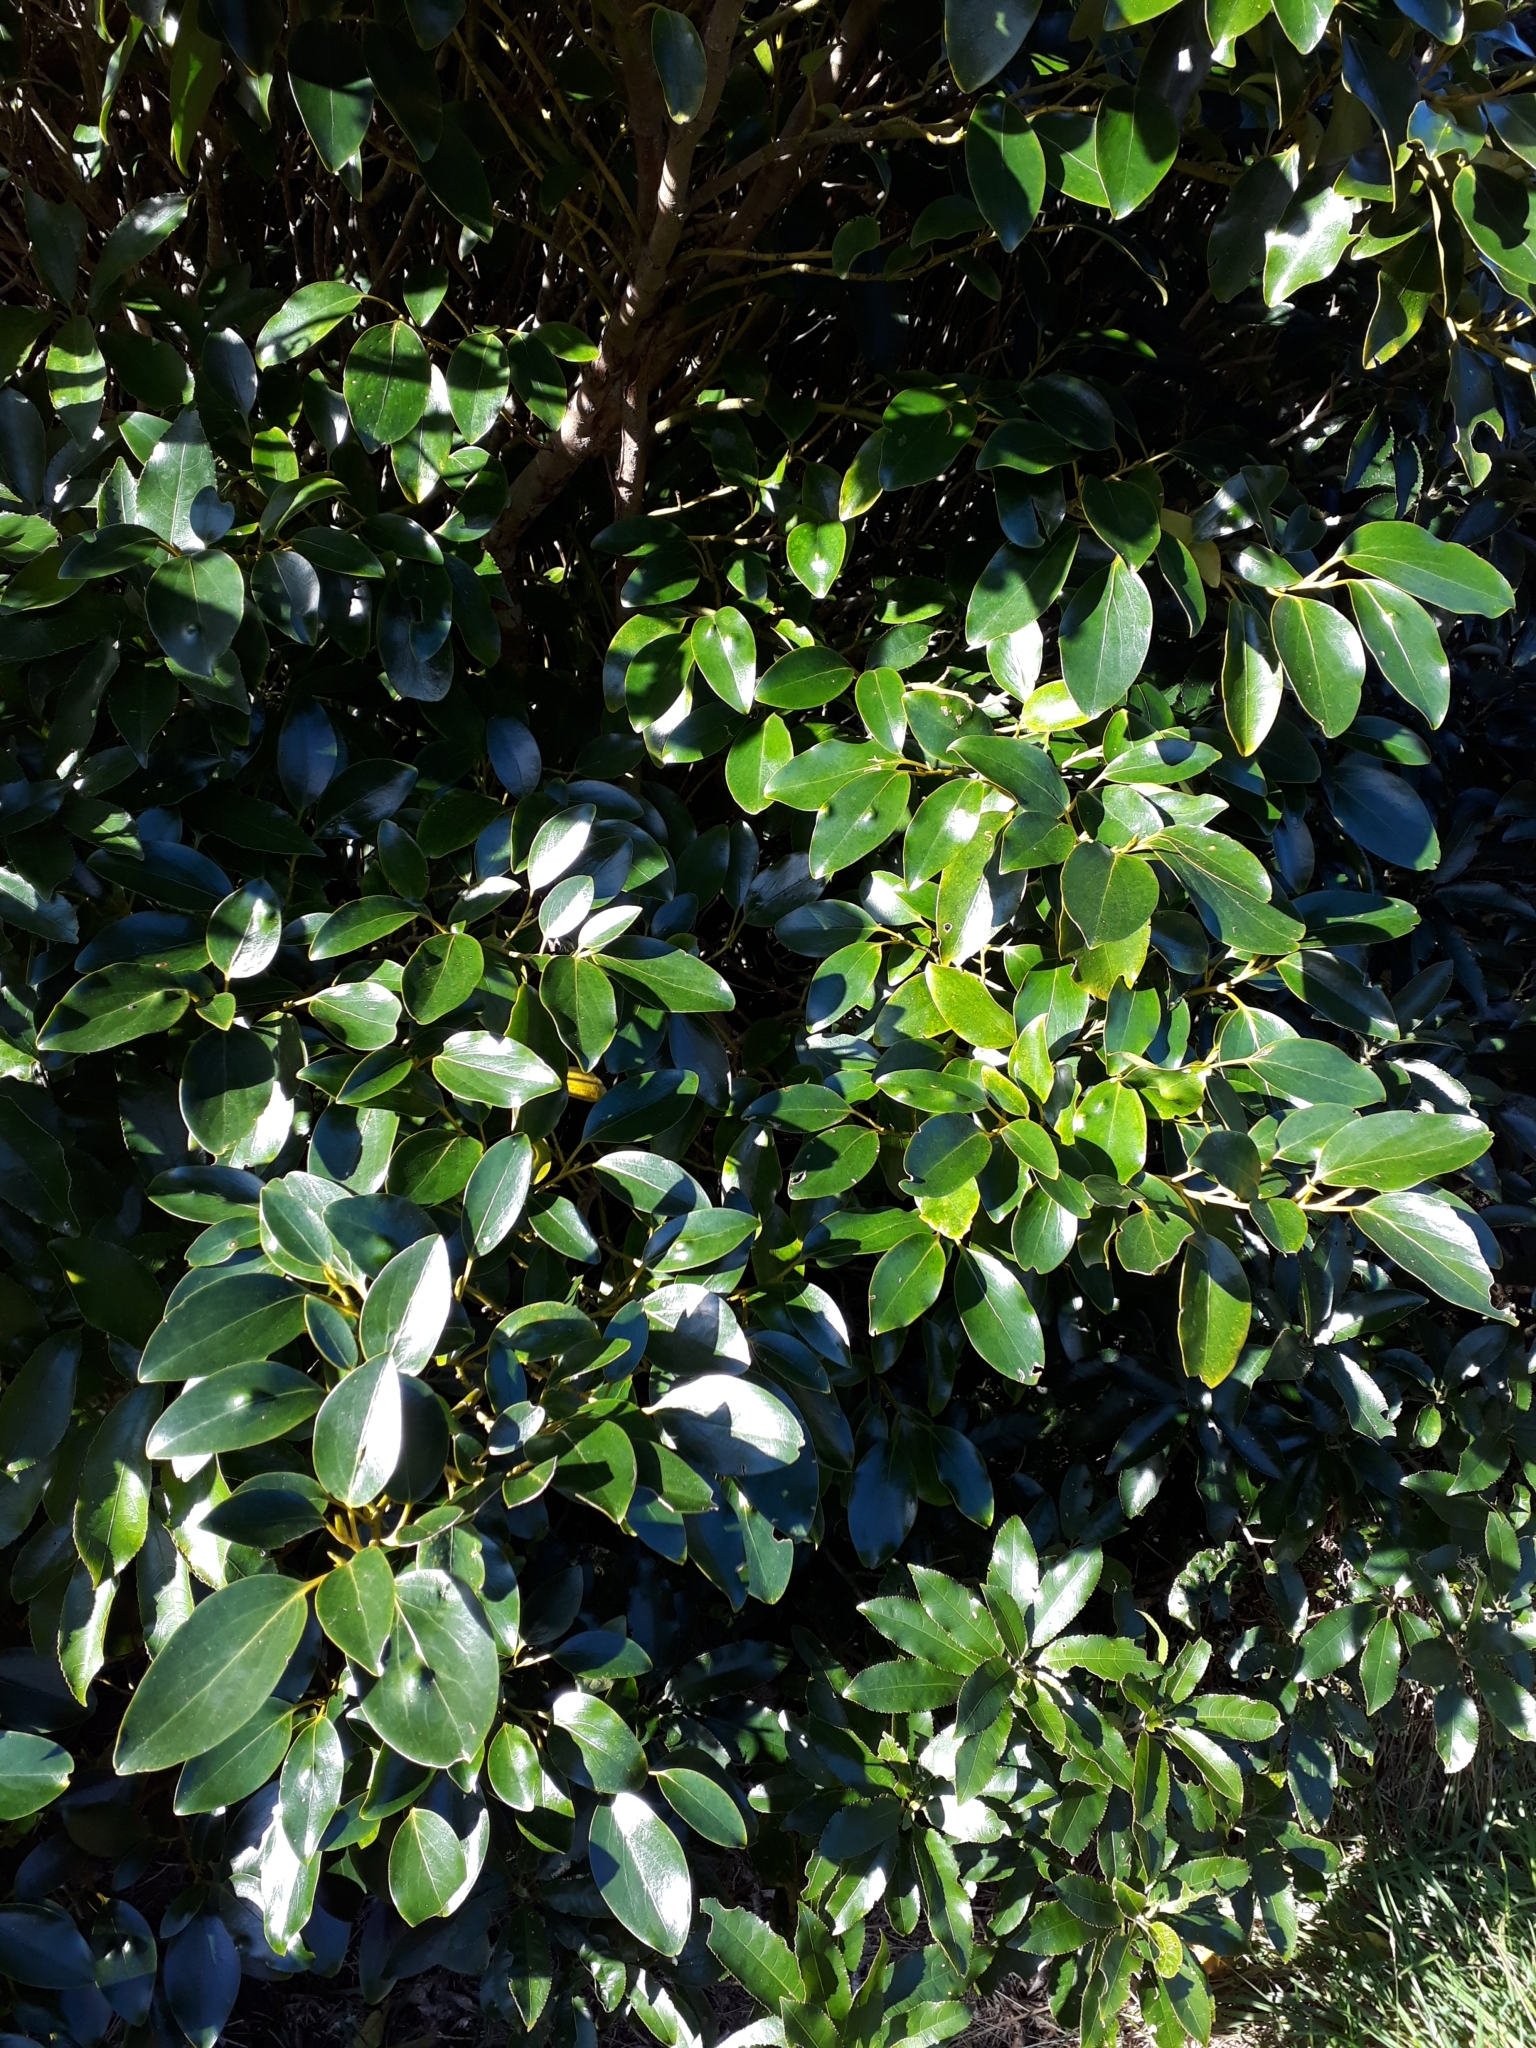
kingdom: Plantae
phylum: Tracheophyta
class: Magnoliopsida
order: Apiales
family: Griseliniaceae
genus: Griselinia
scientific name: Griselinia littoralis
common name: New zealand broadleaf
